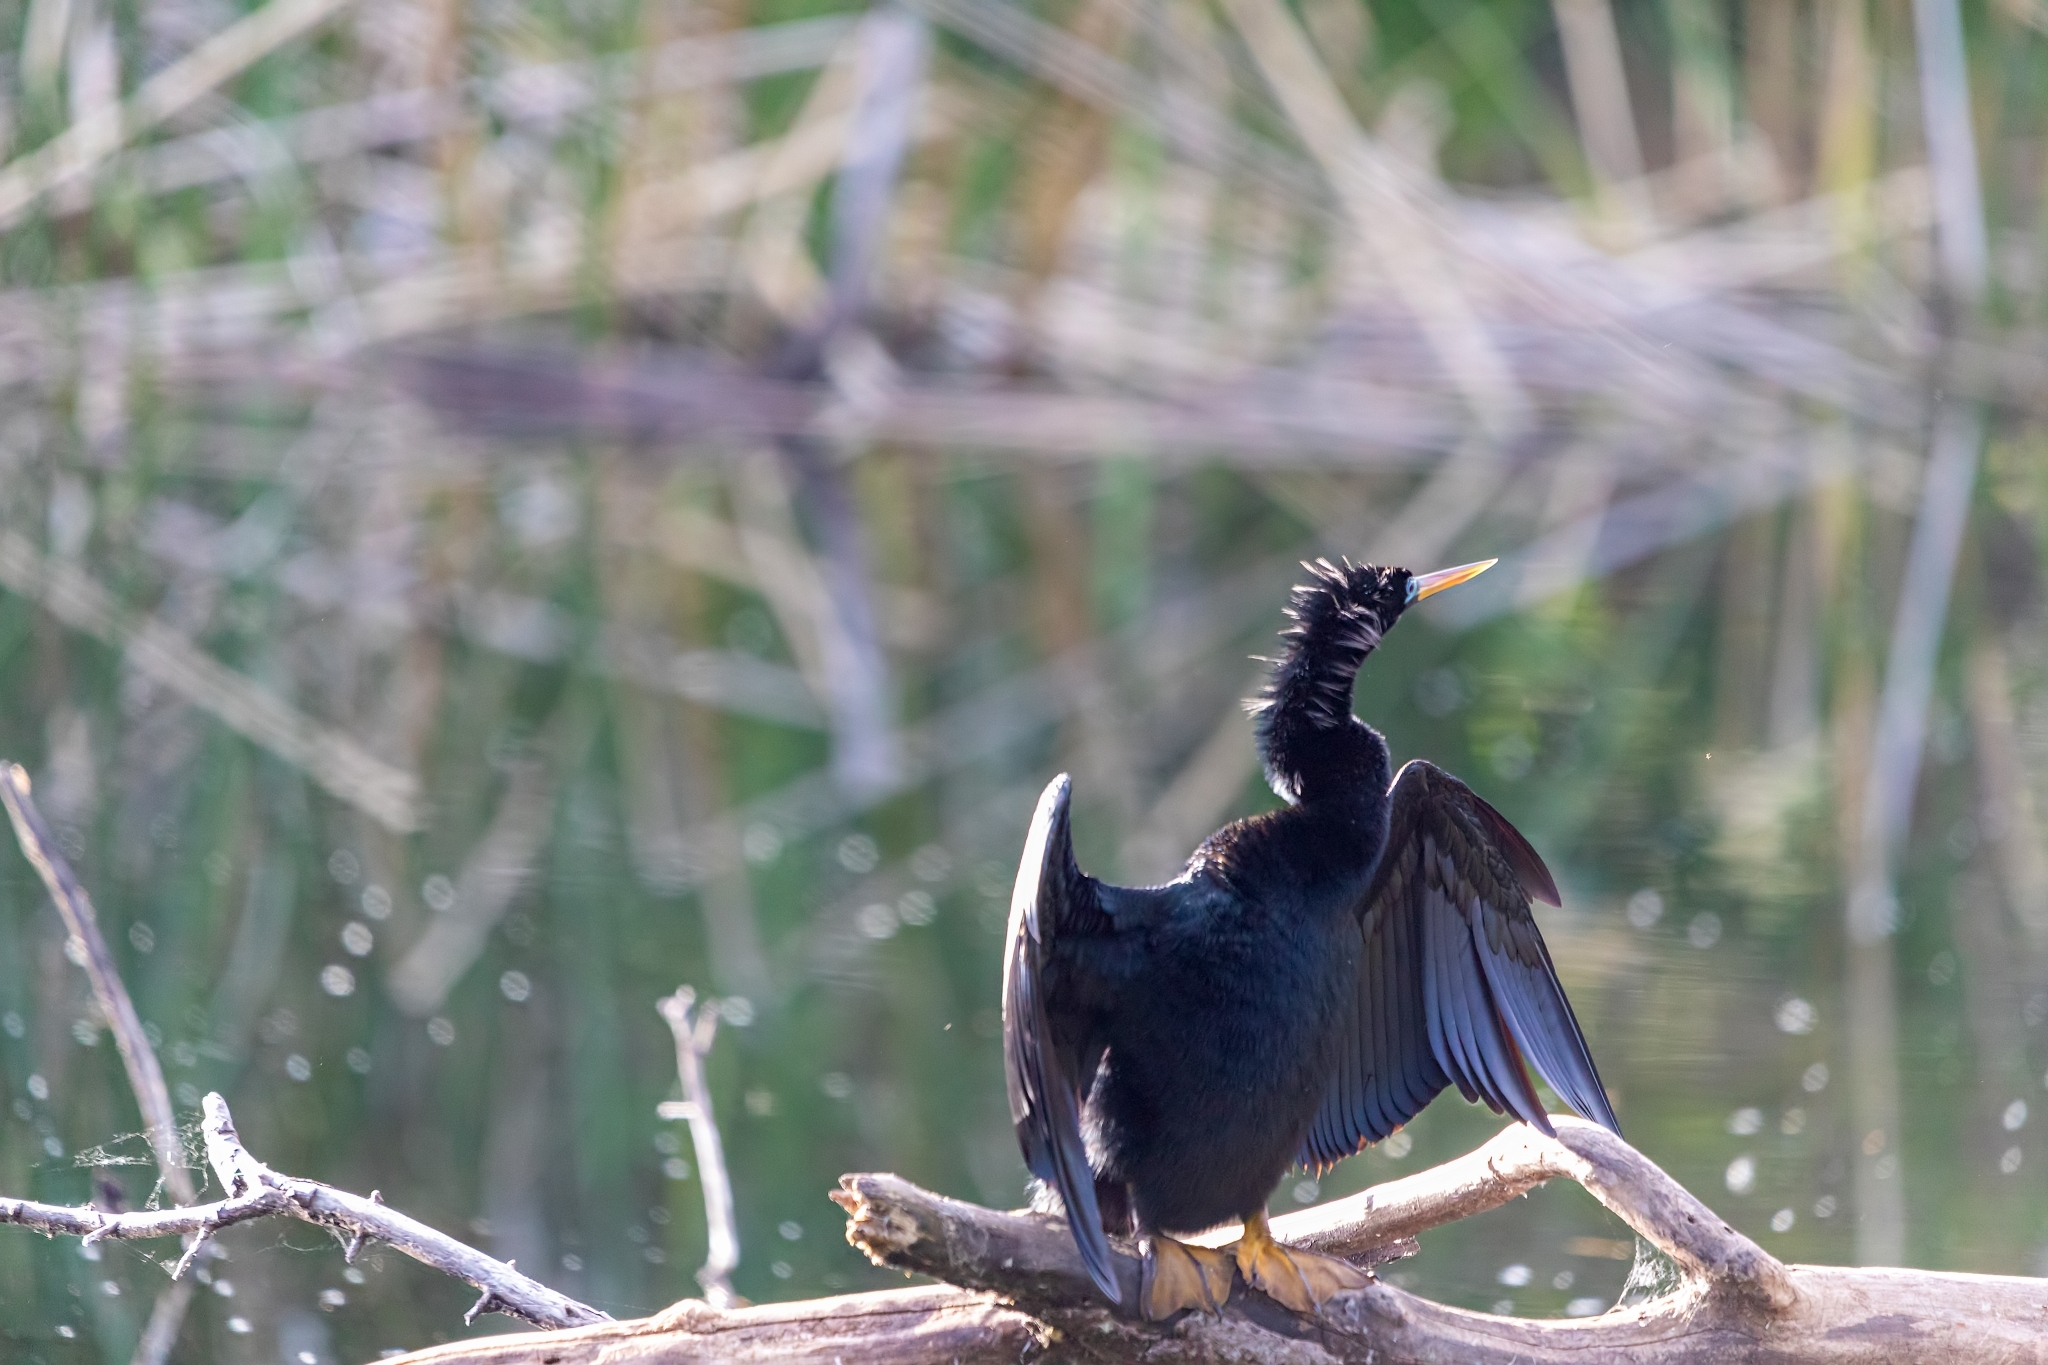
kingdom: Animalia
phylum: Chordata
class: Aves
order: Suliformes
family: Anhingidae
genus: Anhinga
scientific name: Anhinga anhinga
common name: Anhinga
